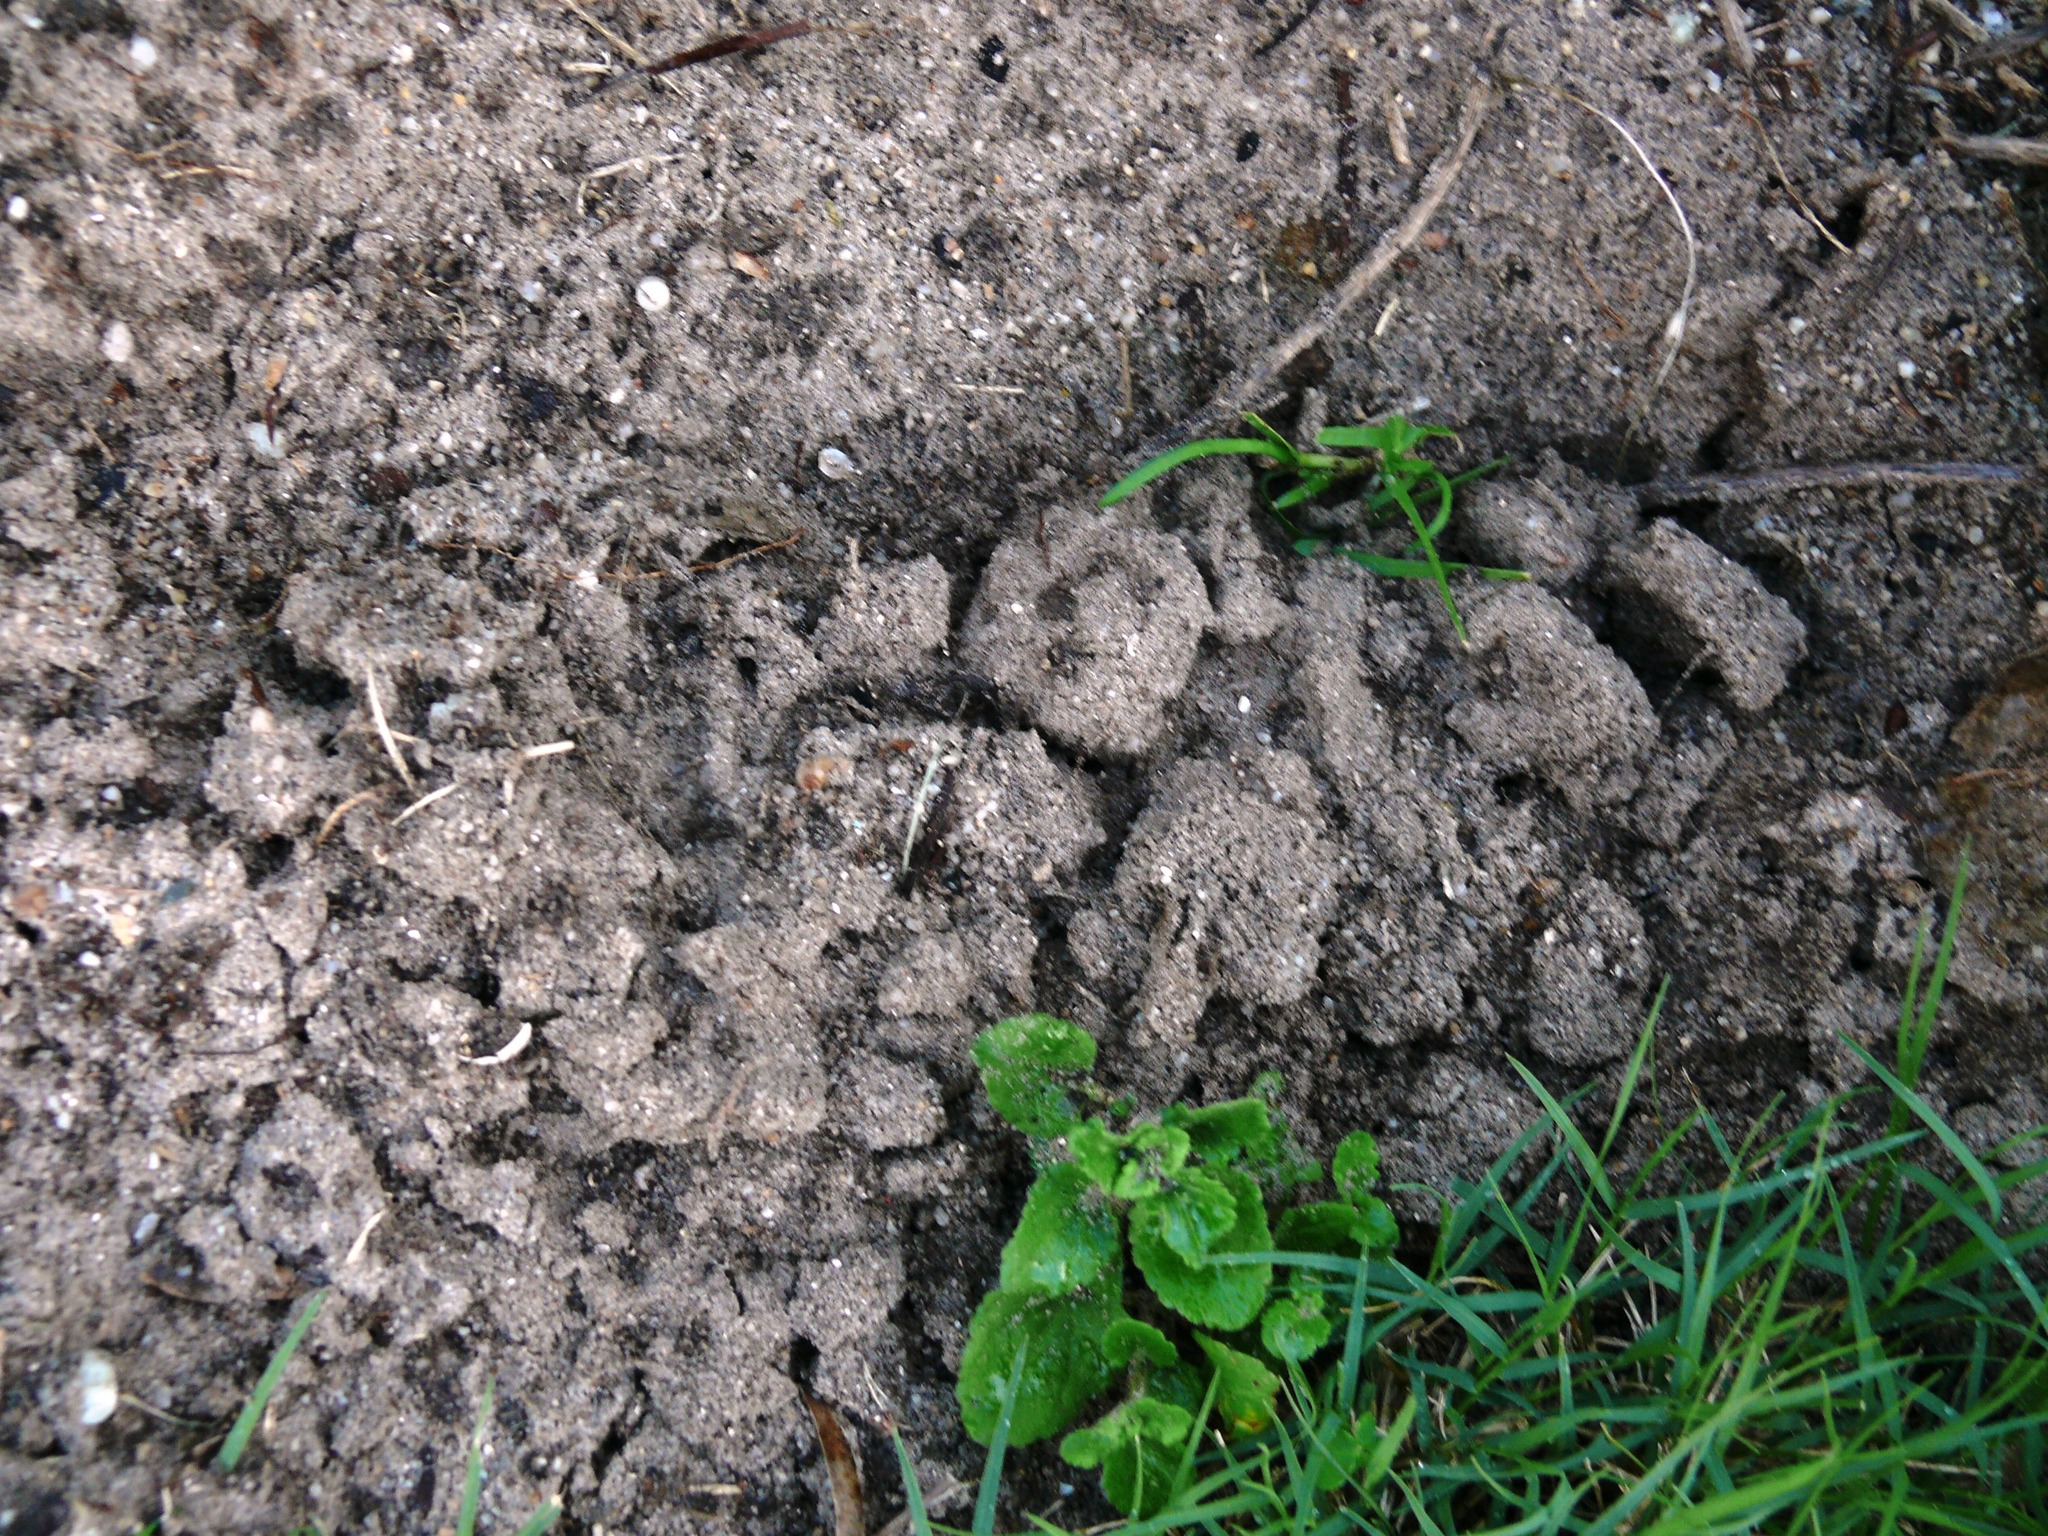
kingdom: Animalia
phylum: Chordata
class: Mammalia
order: Afrosoricida
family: Chrysochloridae
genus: Chrysochloris
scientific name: Chrysochloris asiatica
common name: Cape golden mole
